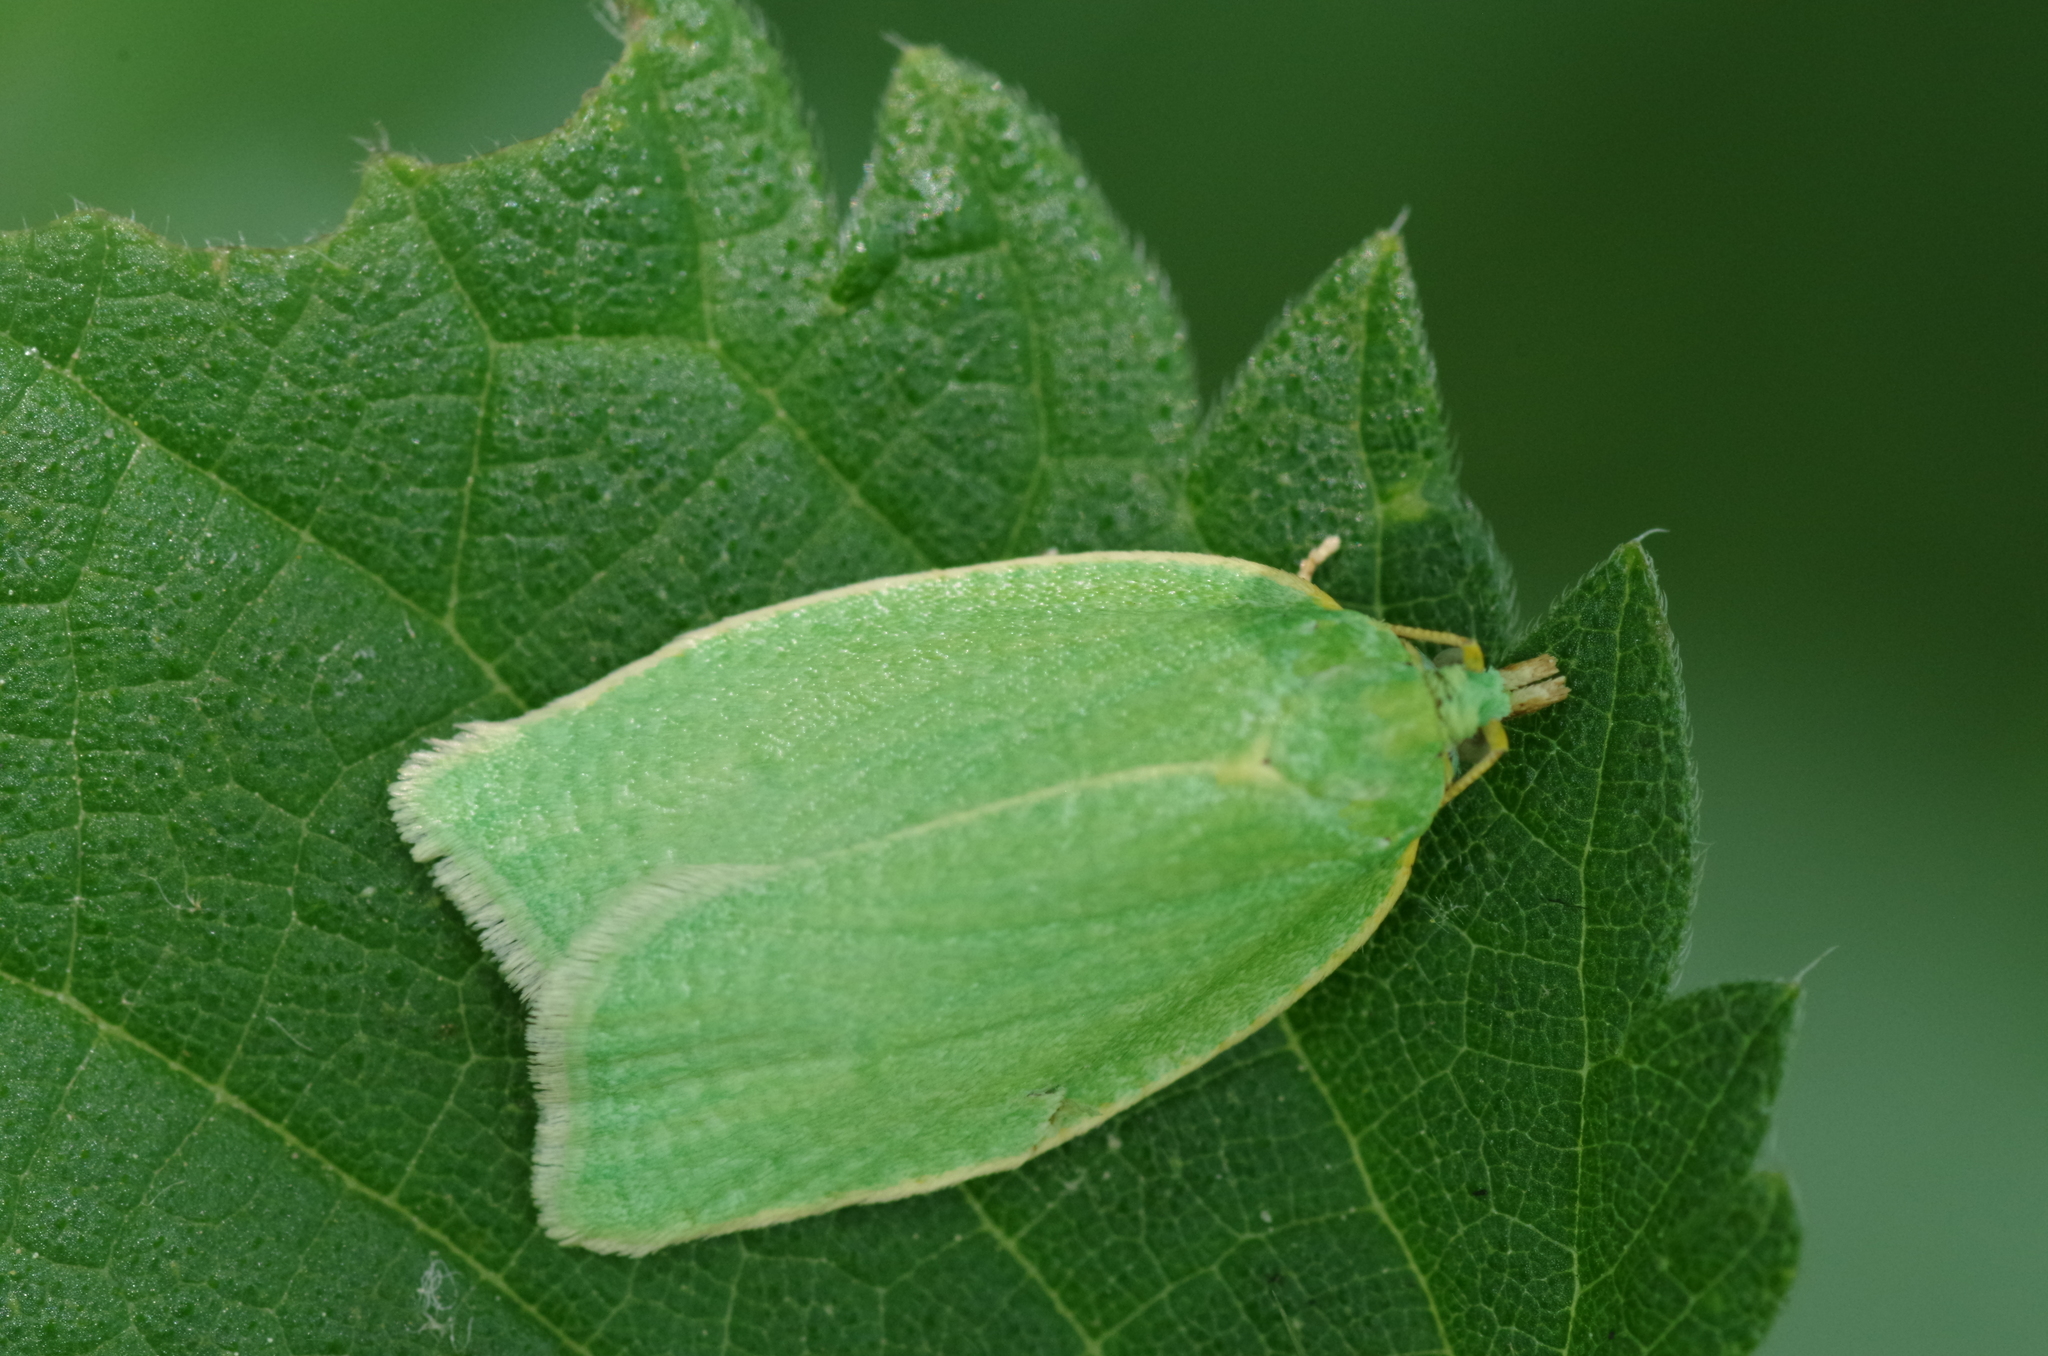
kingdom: Animalia
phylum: Arthropoda
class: Insecta
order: Lepidoptera
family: Tortricidae
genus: Tortrix
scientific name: Tortrix viridana
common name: Green oak tortrix
